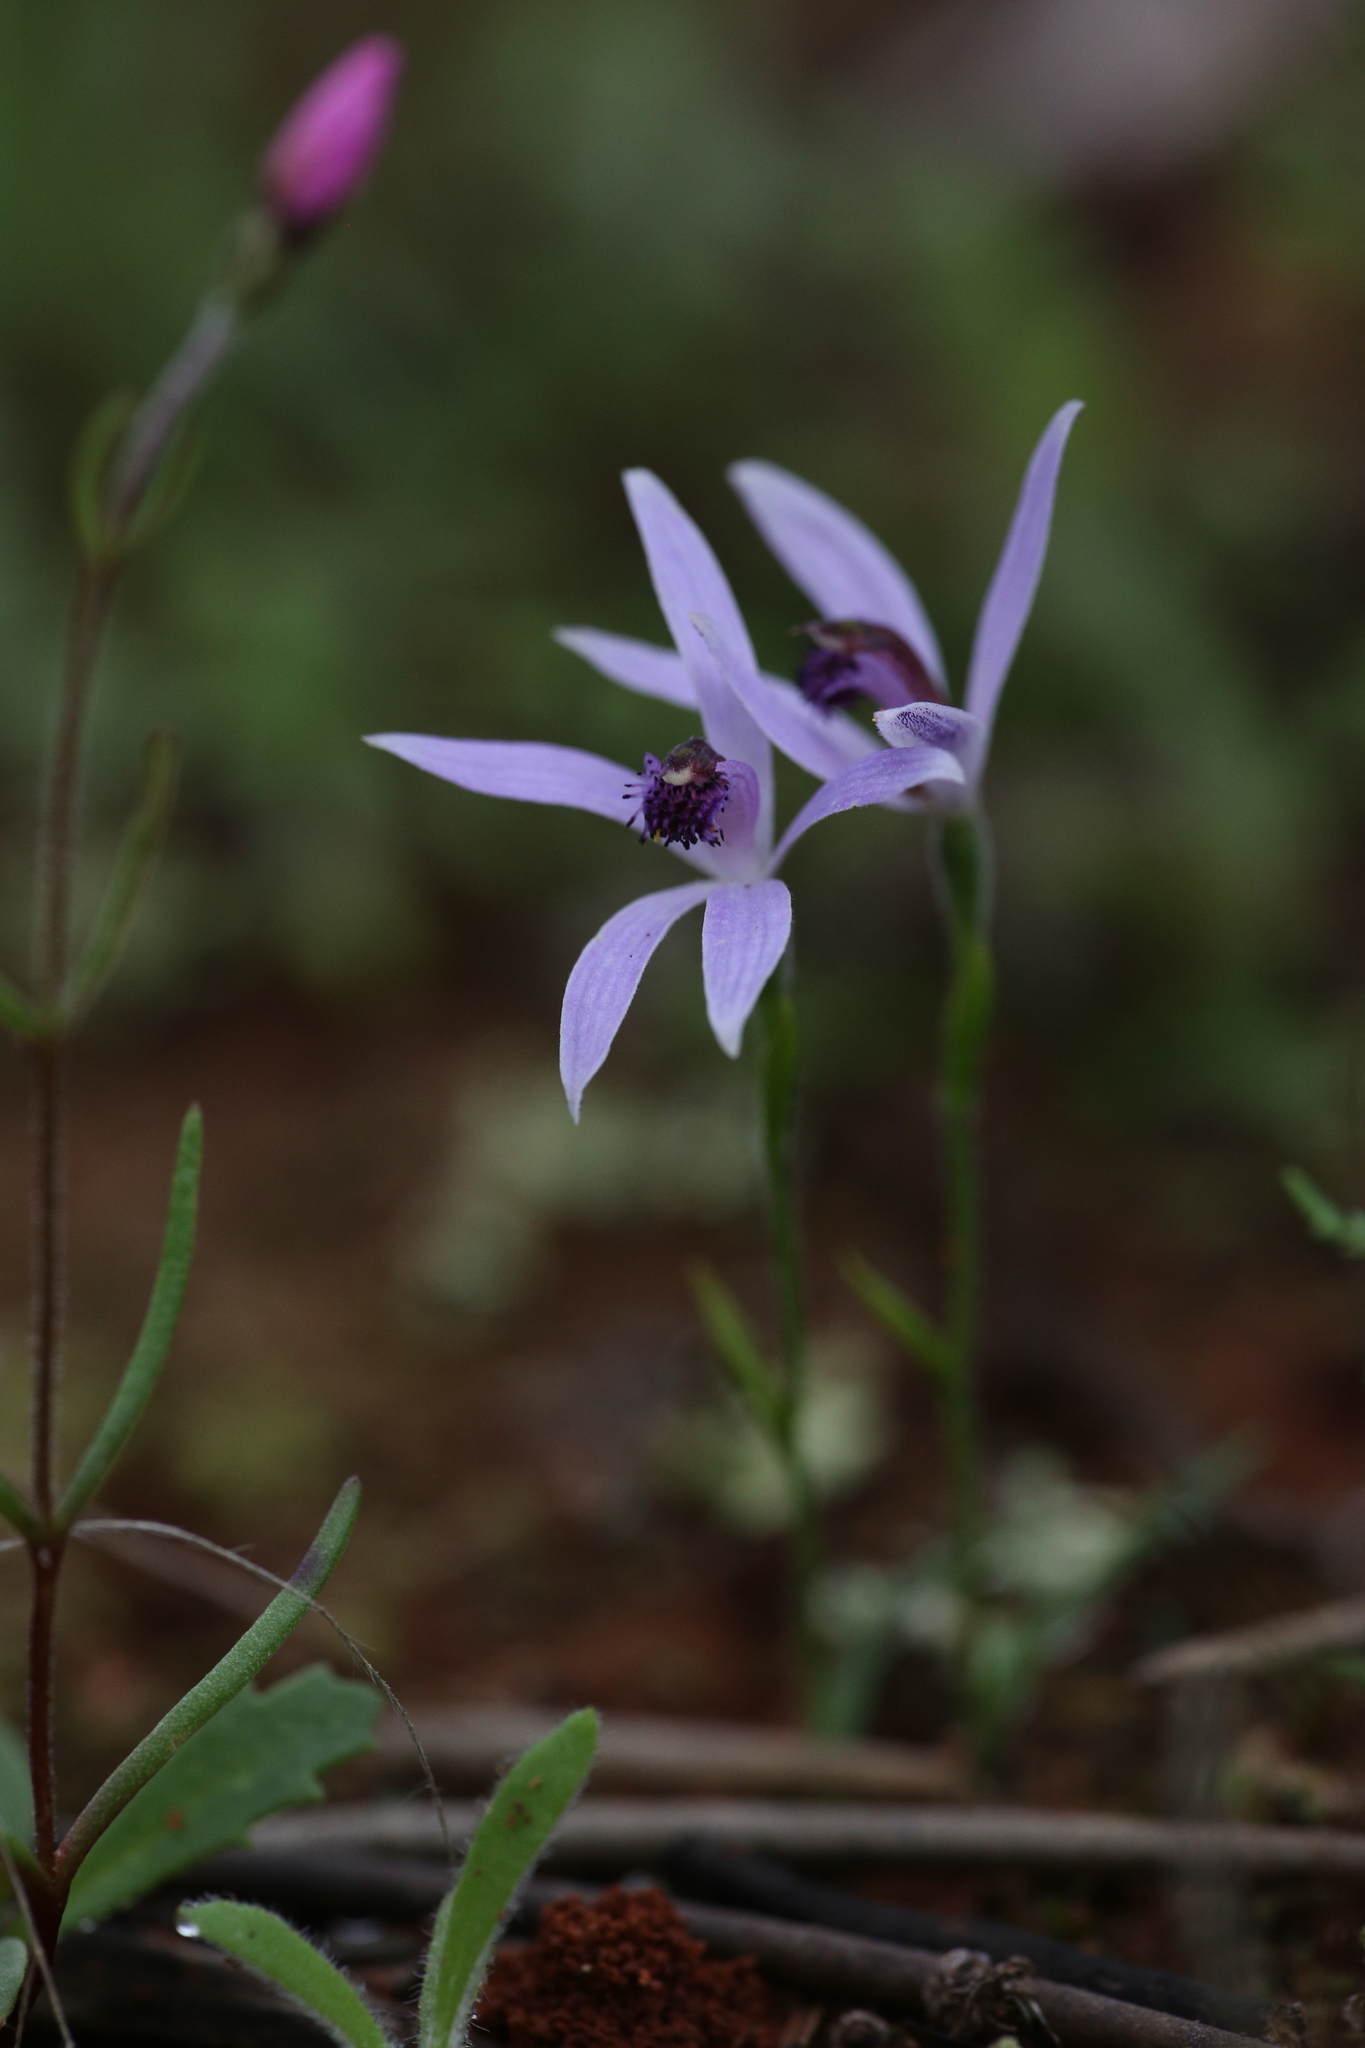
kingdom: Plantae
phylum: Tracheophyta
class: Liliopsida
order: Asparagales
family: Orchidaceae
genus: Pheladenia
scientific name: Pheladenia deformis
